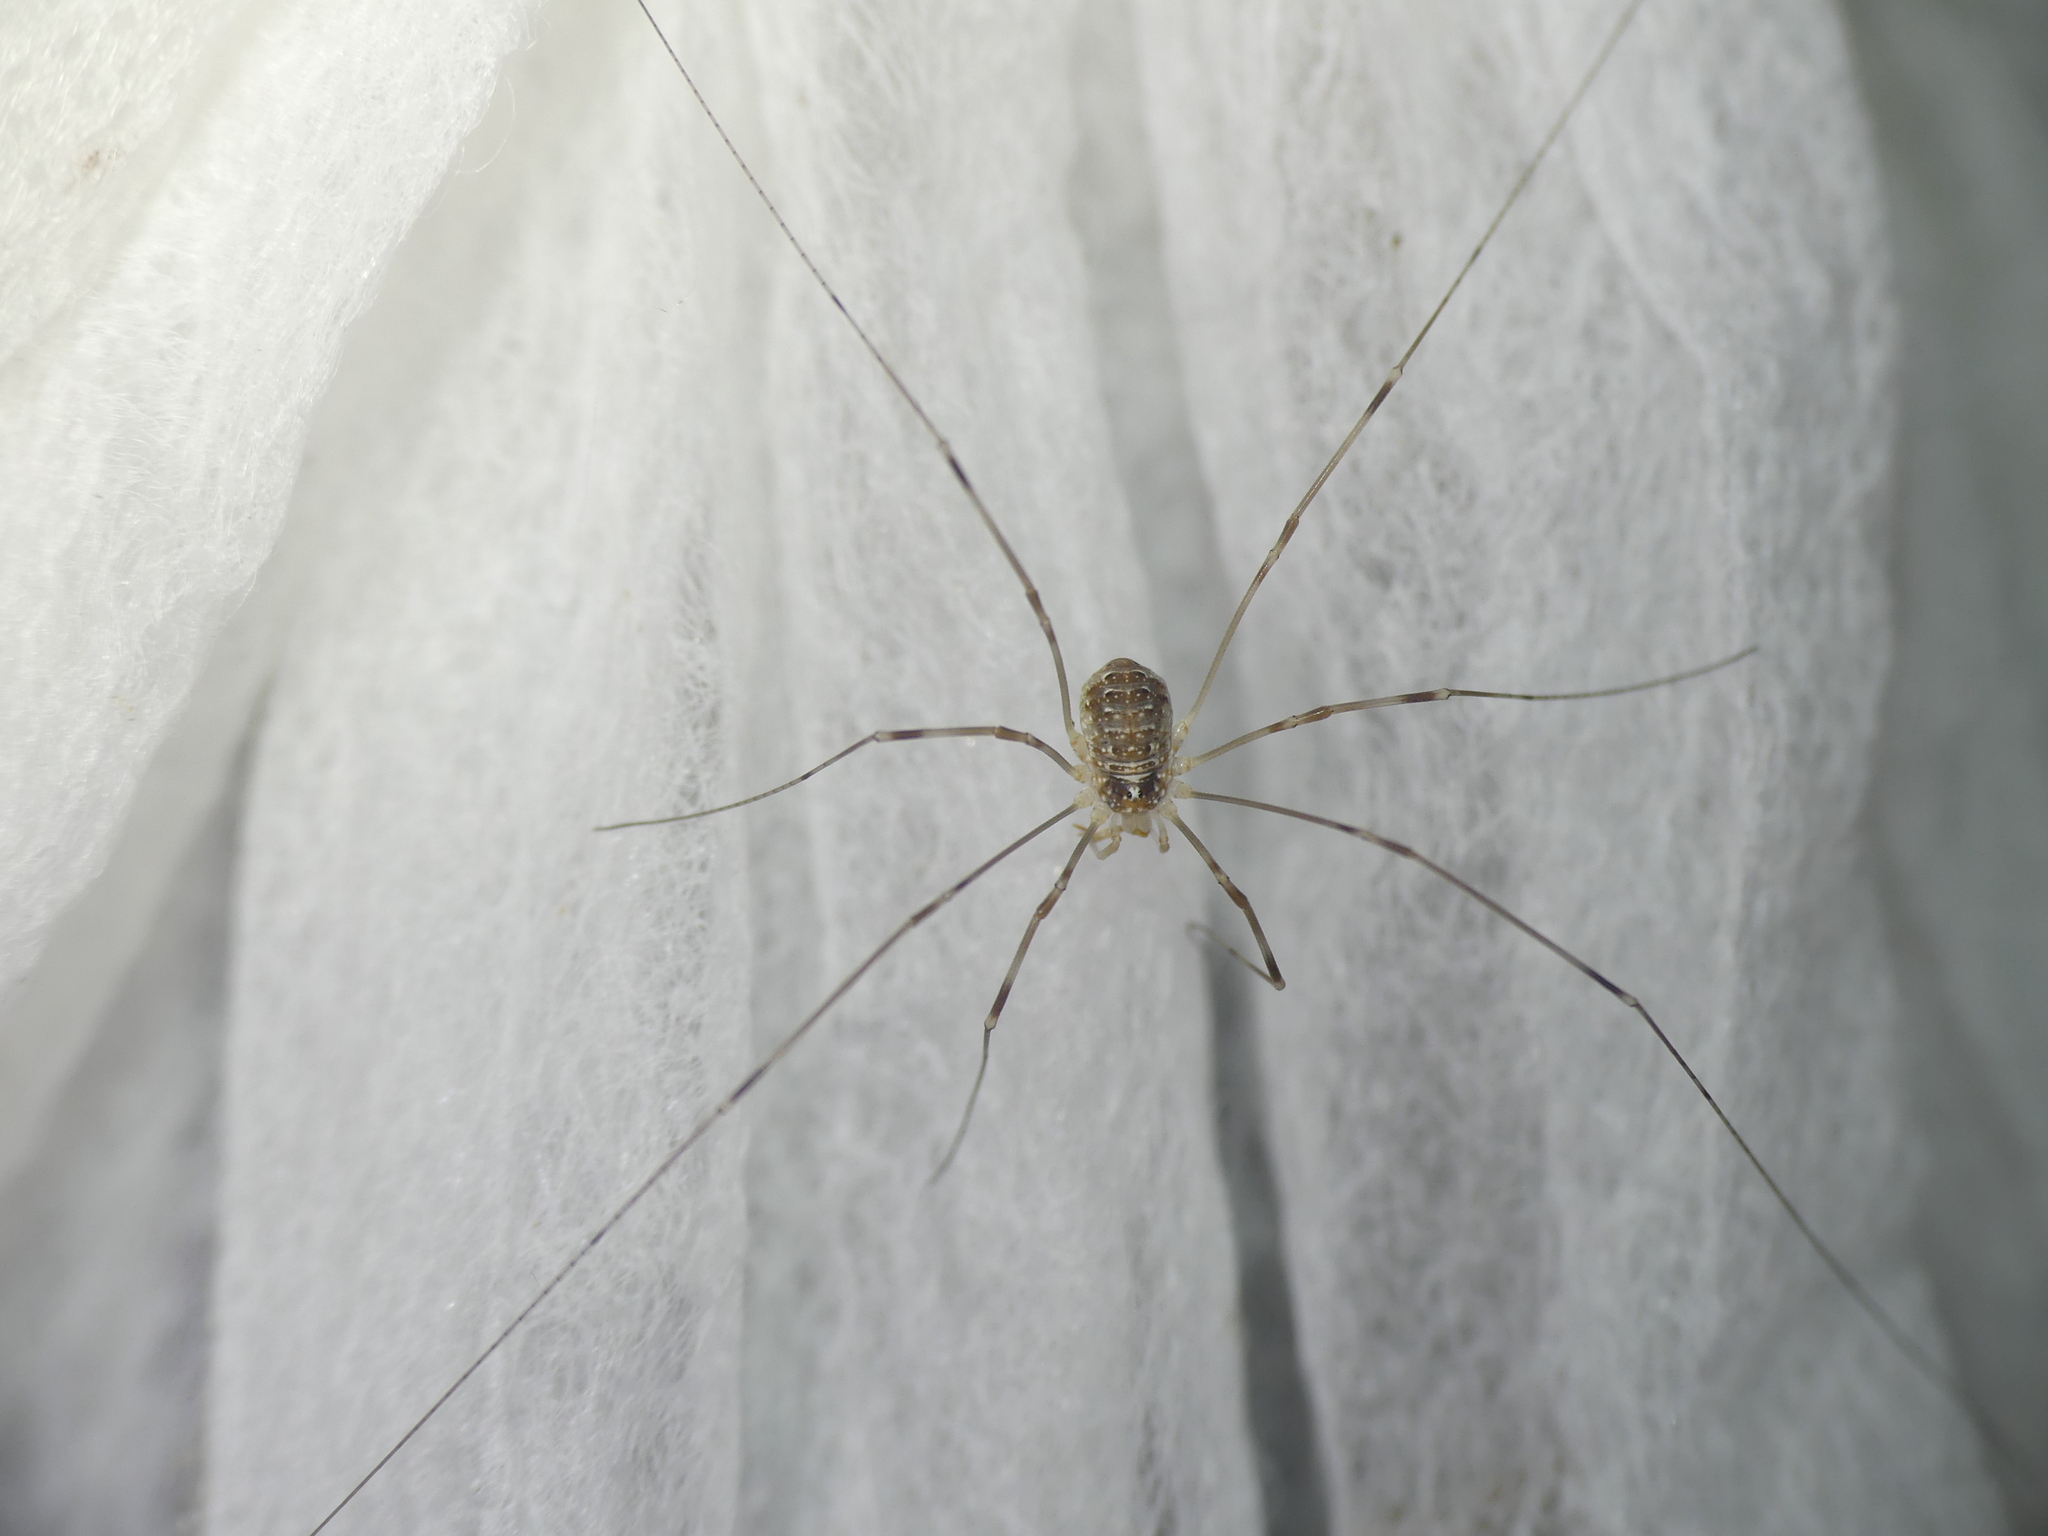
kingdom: Animalia
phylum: Arthropoda
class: Arachnida
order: Opiliones
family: Phalangiidae
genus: Opilio
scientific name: Opilio canestrinii
